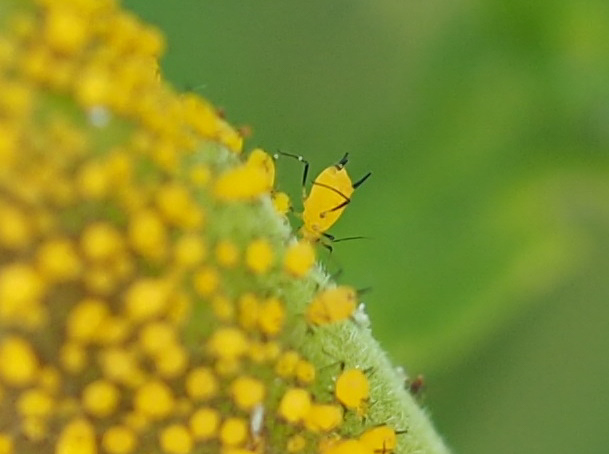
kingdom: Animalia
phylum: Arthropoda
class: Insecta
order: Hemiptera
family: Aphididae
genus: Aphis
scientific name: Aphis nerii
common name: Oleander aphid
